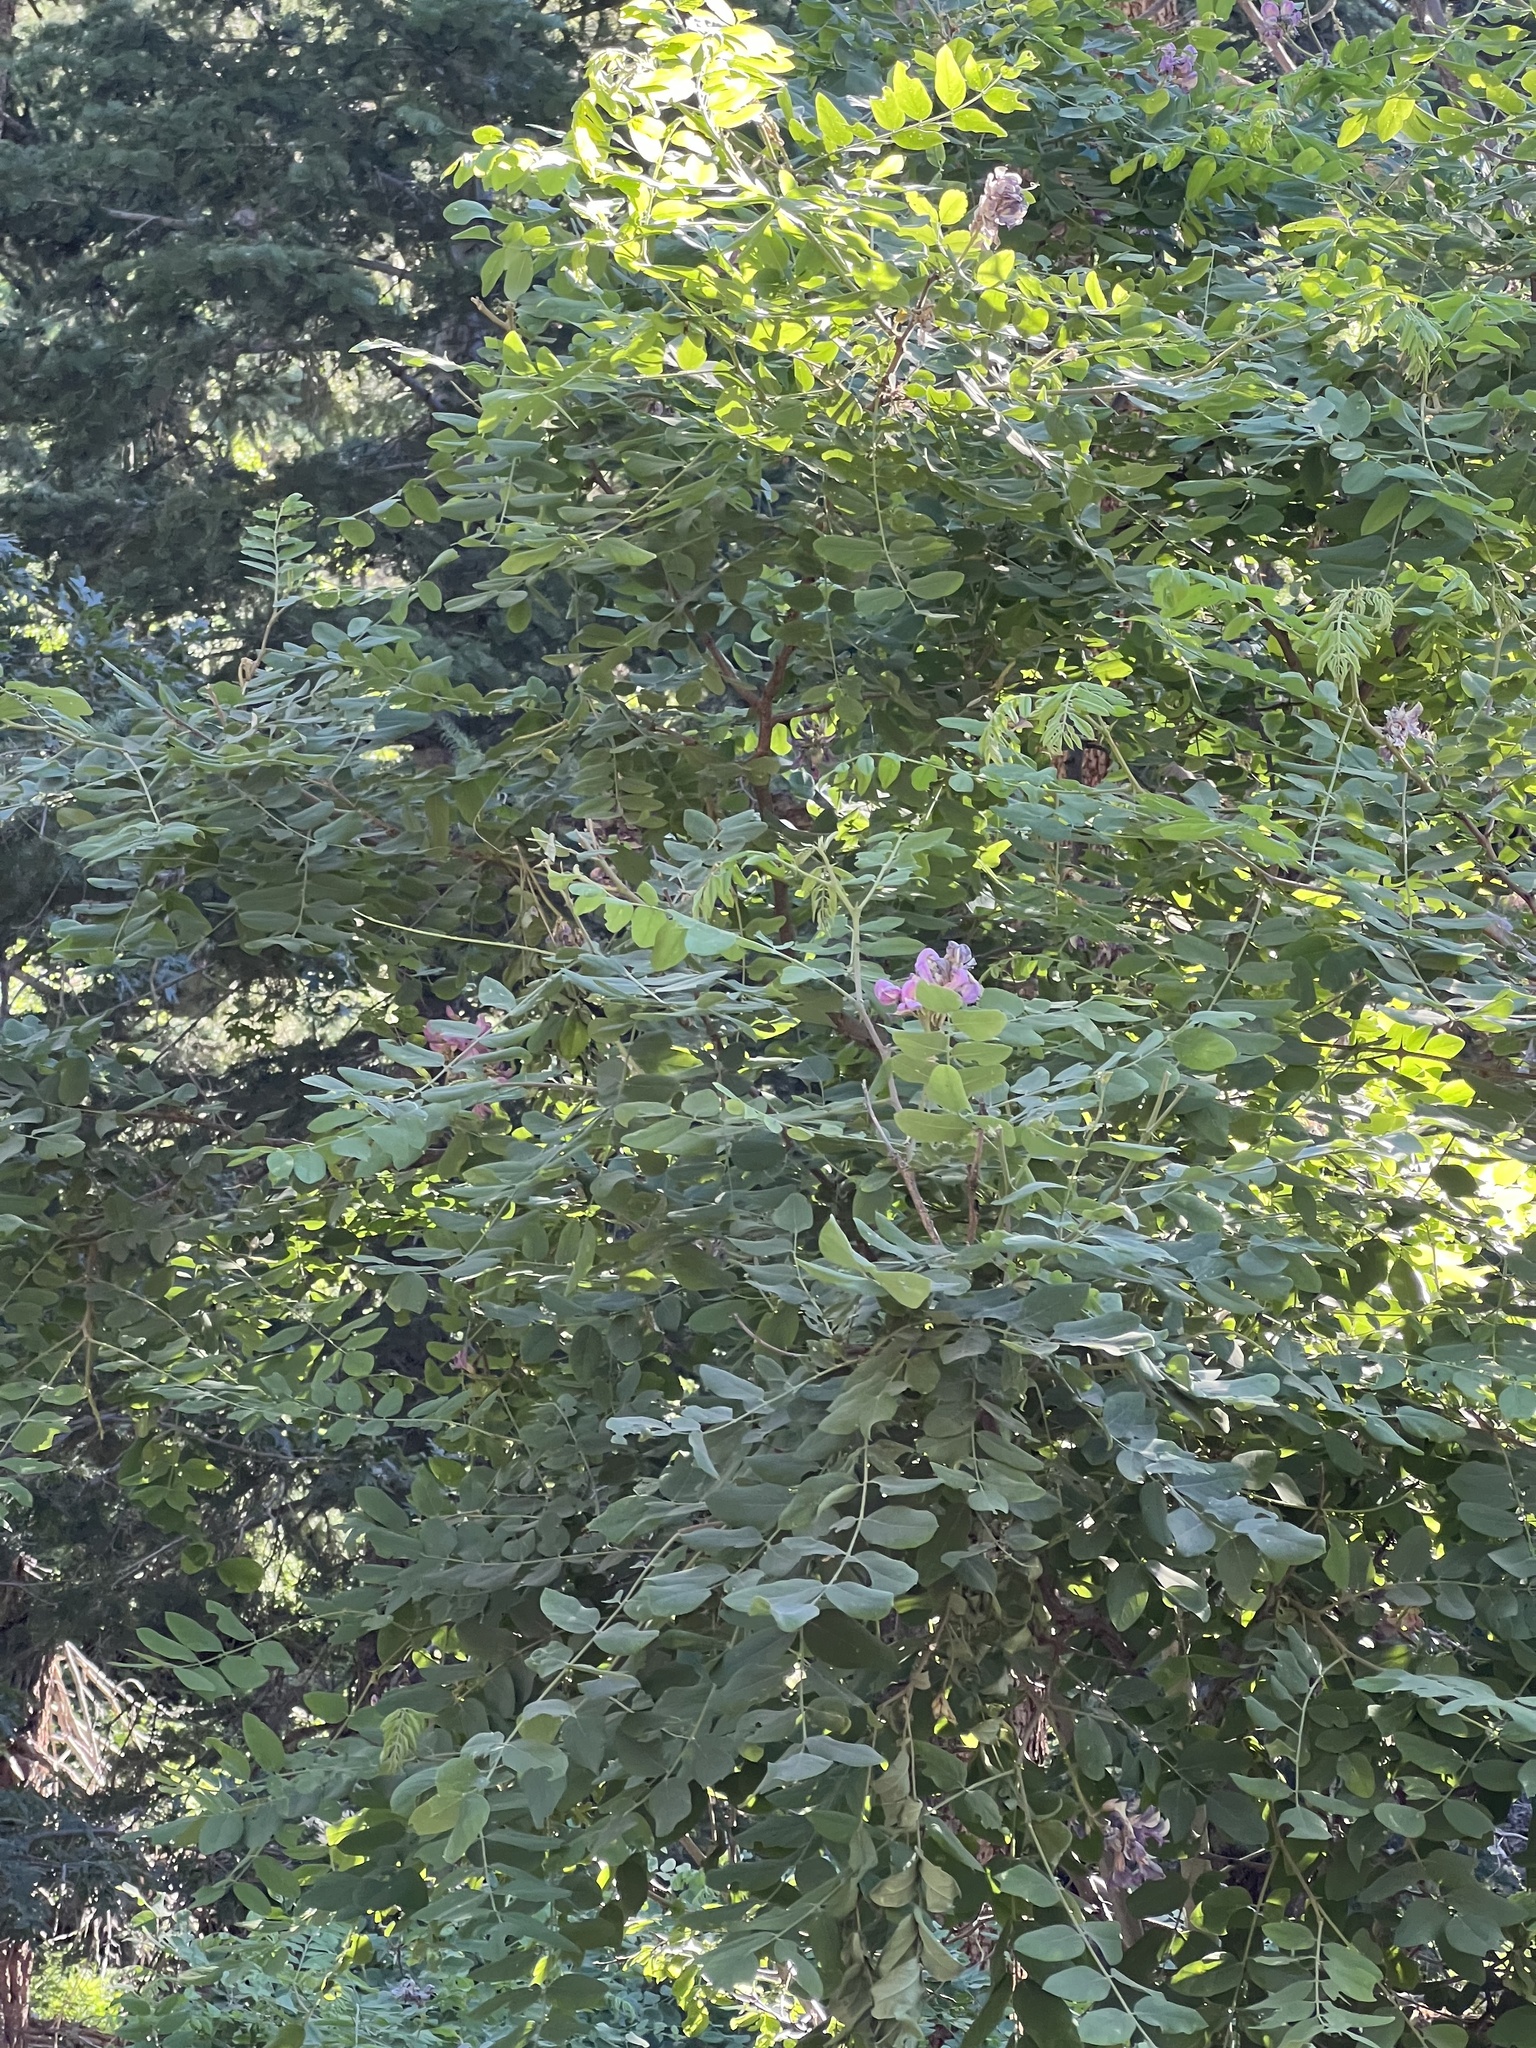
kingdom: Plantae
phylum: Tracheophyta
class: Magnoliopsida
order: Fabales
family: Fabaceae
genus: Robinia
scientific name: Robinia neomexicana
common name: New mexico locust
